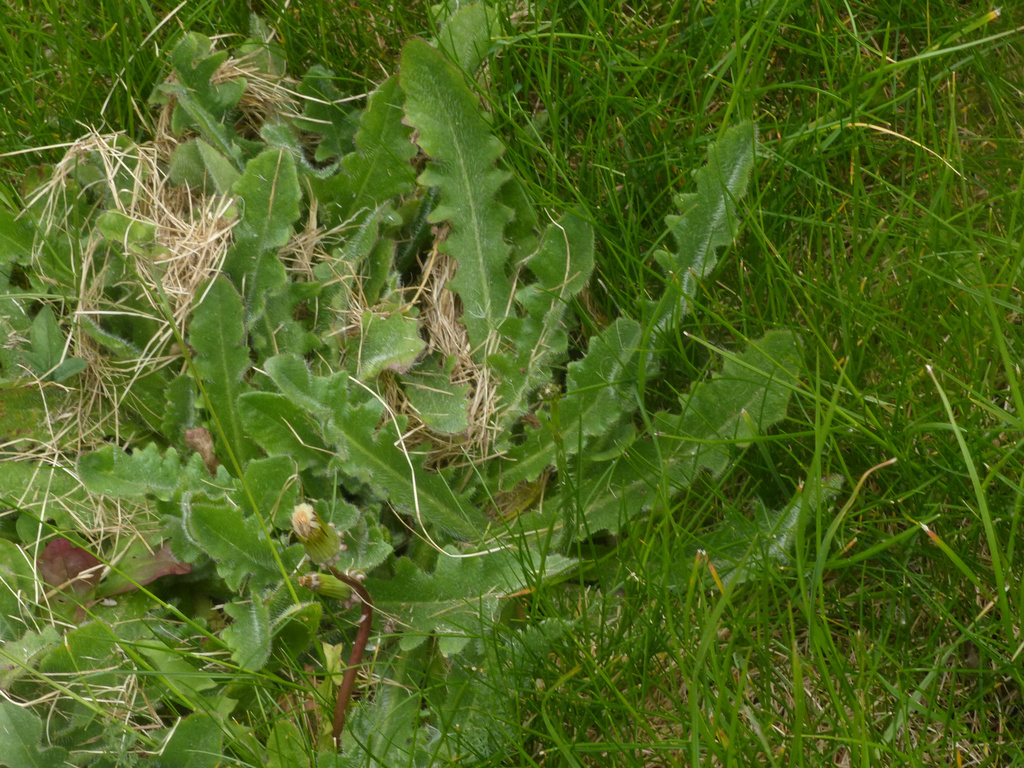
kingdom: Plantae
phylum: Tracheophyta
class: Magnoliopsida
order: Asterales
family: Asteraceae
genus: Hypochaeris
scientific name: Hypochaeris radicata
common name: Flatweed
